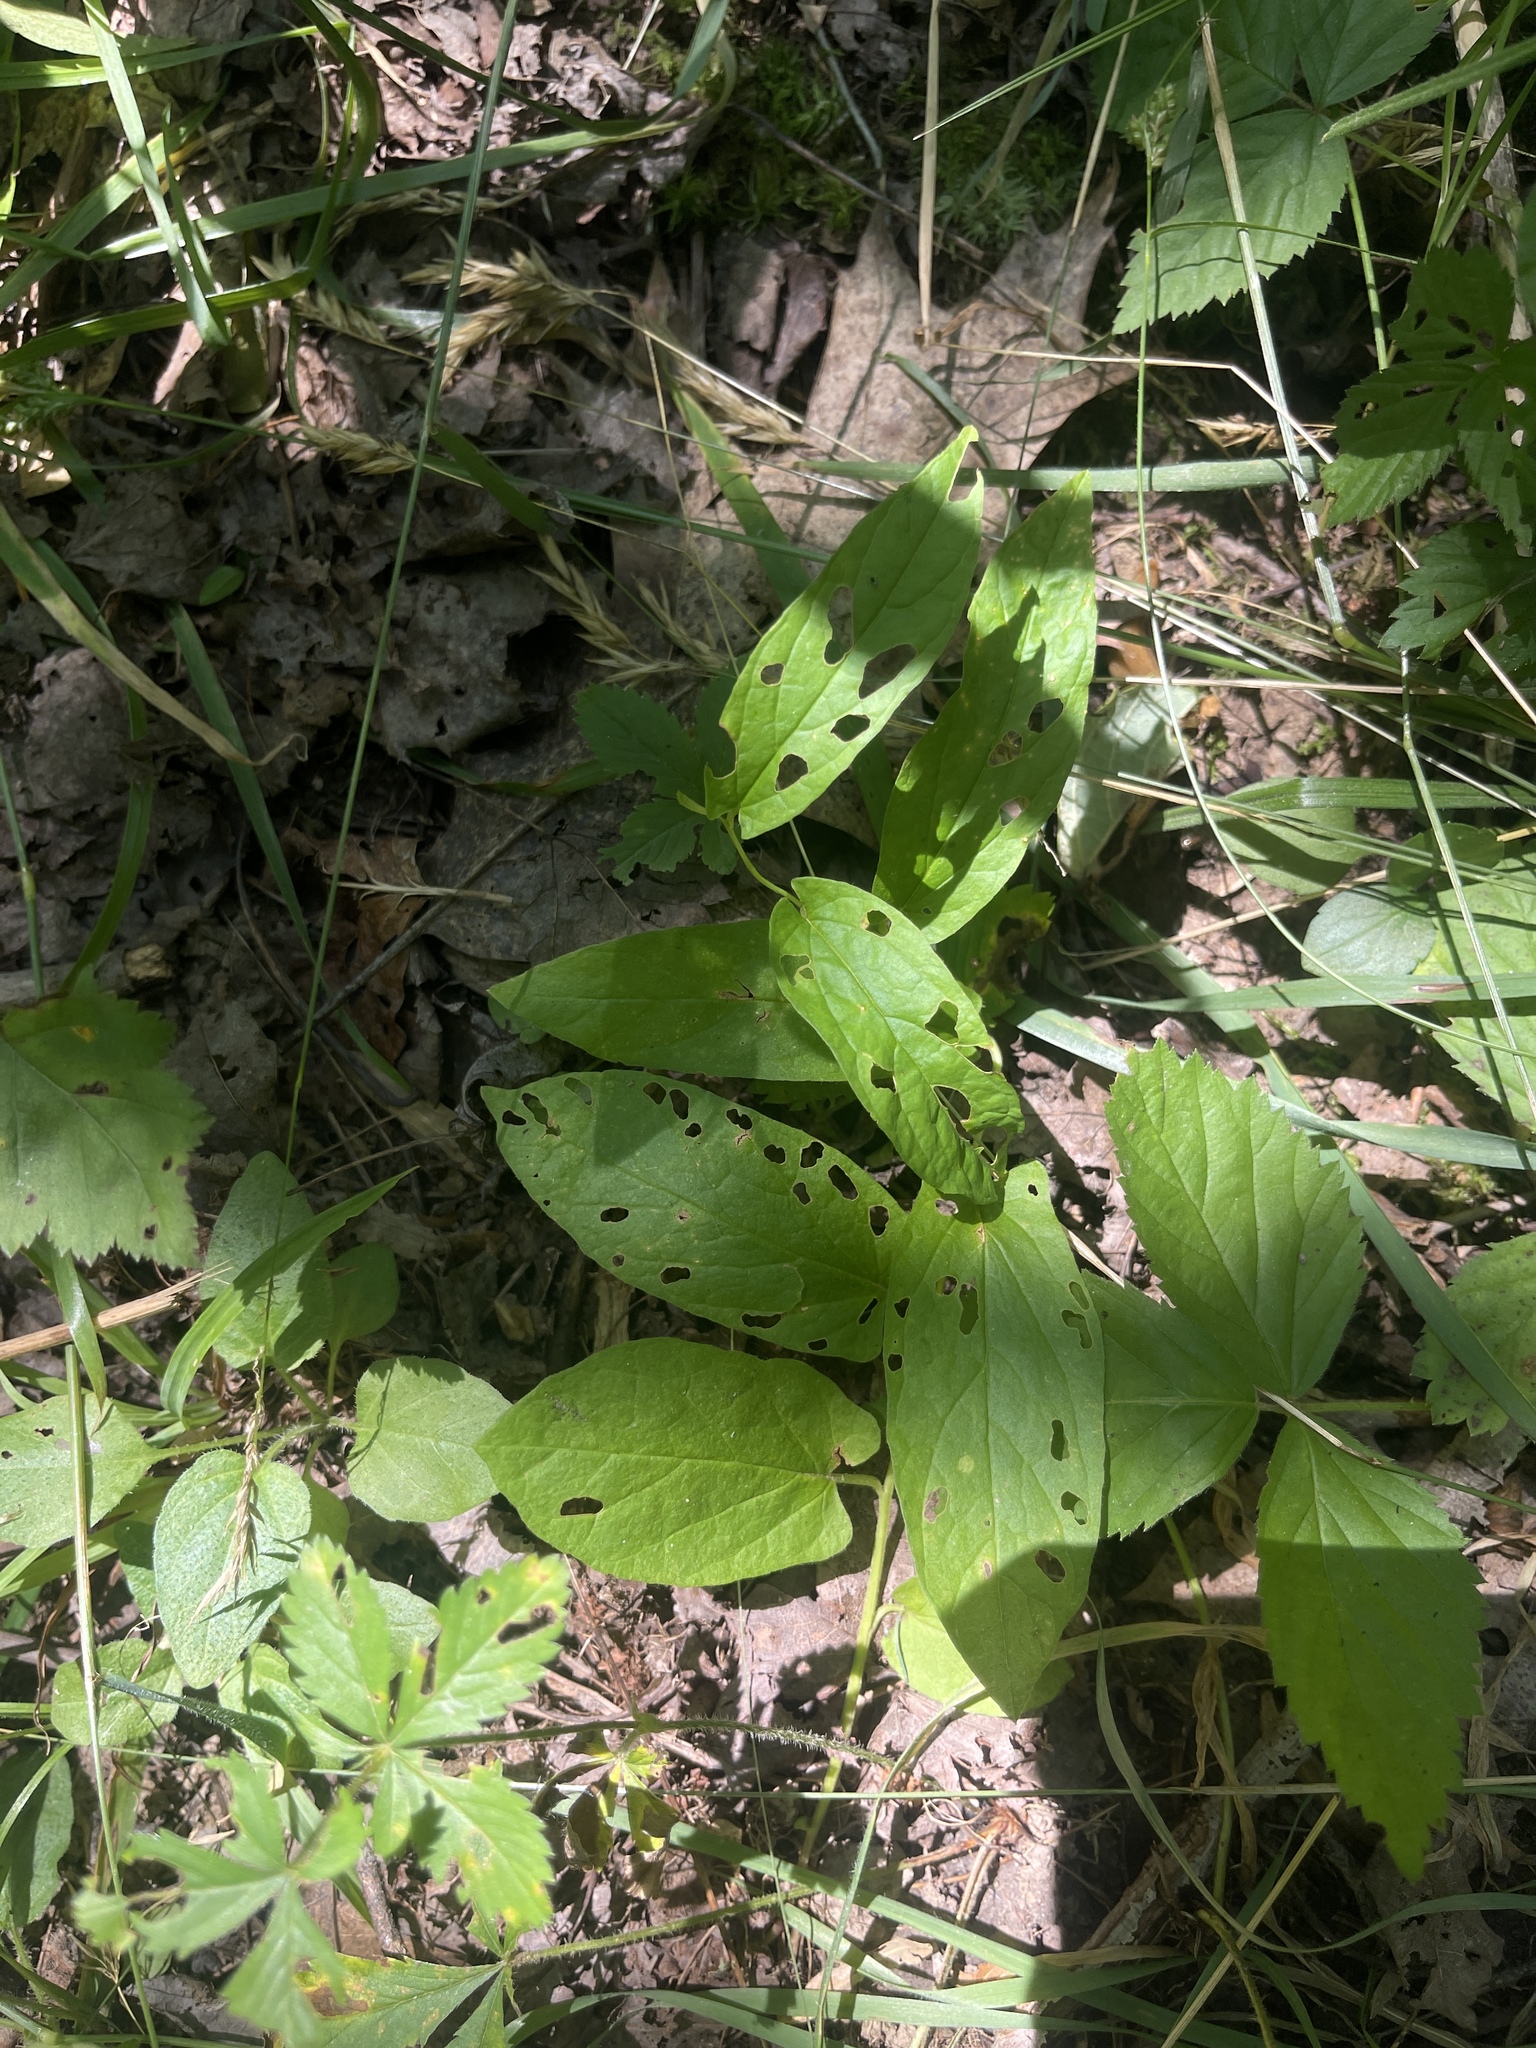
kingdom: Plantae
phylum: Tracheophyta
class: Magnoliopsida
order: Solanales
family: Convolvulaceae
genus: Calystegia
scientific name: Calystegia spithamaea
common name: Dwarf bindweed
